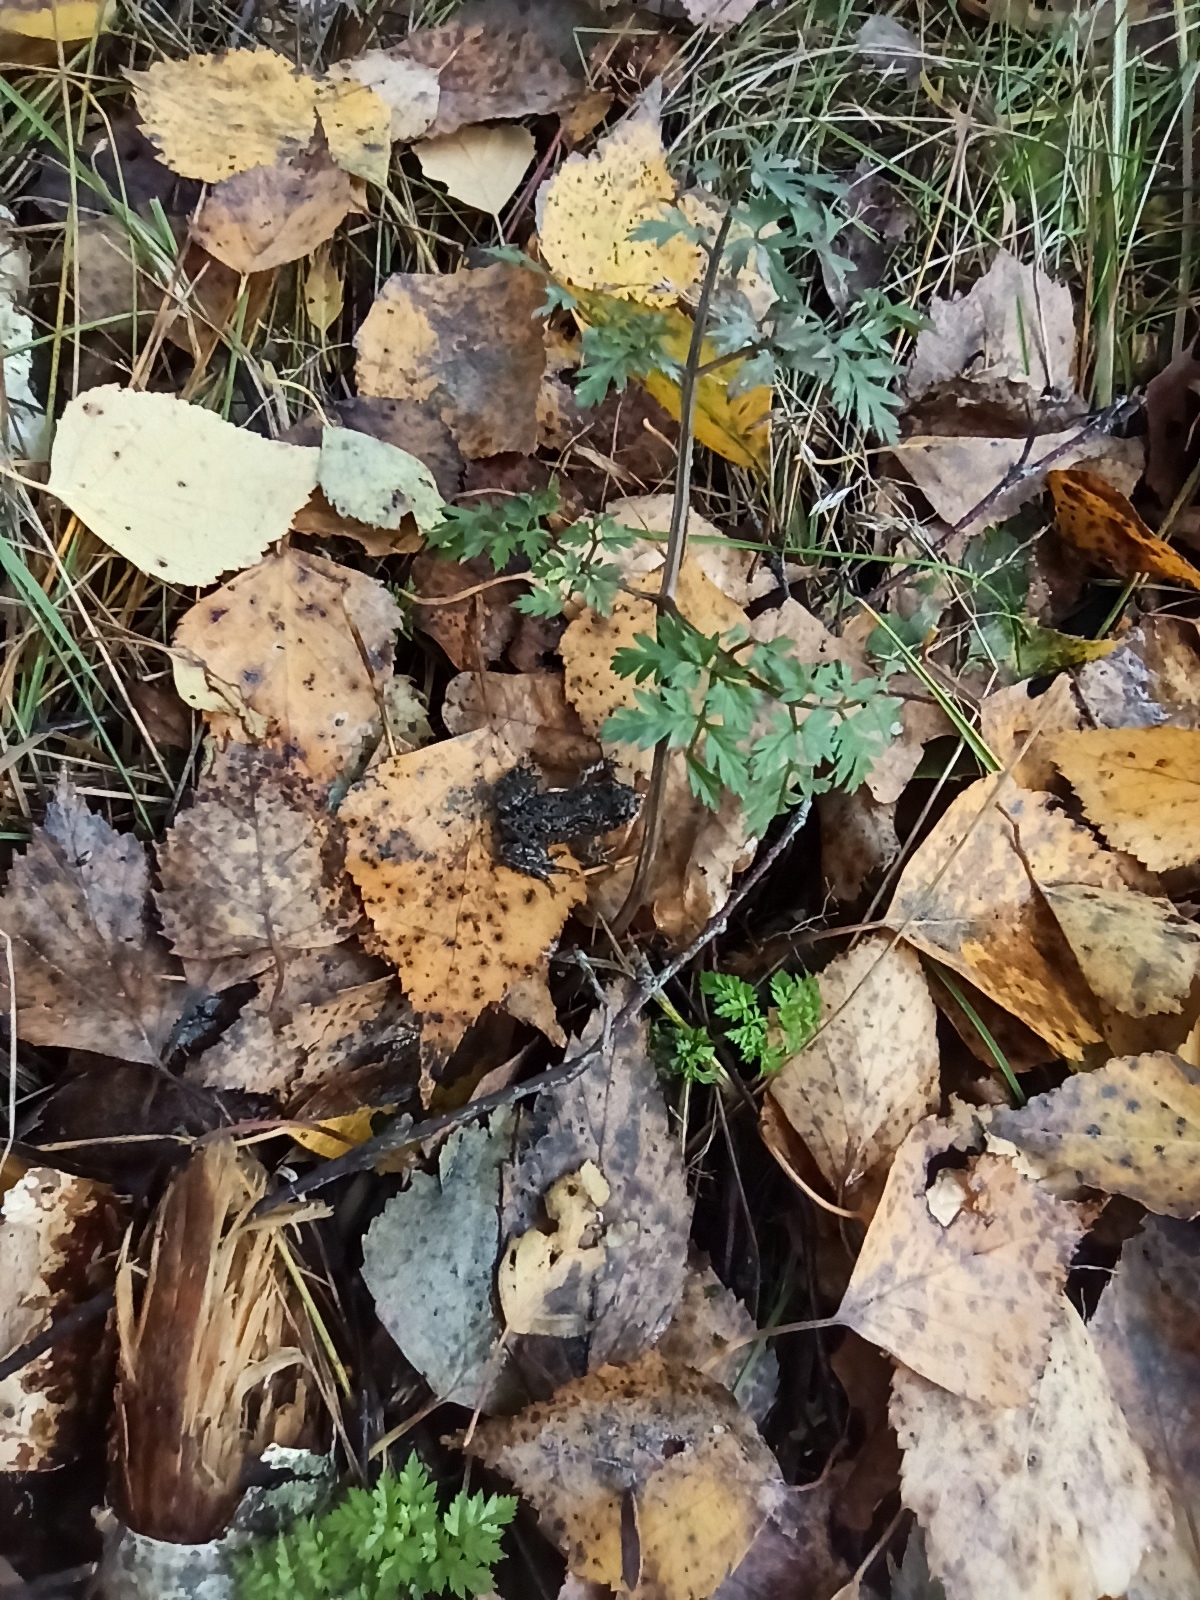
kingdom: Animalia
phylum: Chordata
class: Amphibia
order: Anura
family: Bombinatoridae
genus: Bombina
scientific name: Bombina bombina
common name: Fire-bellied toad
